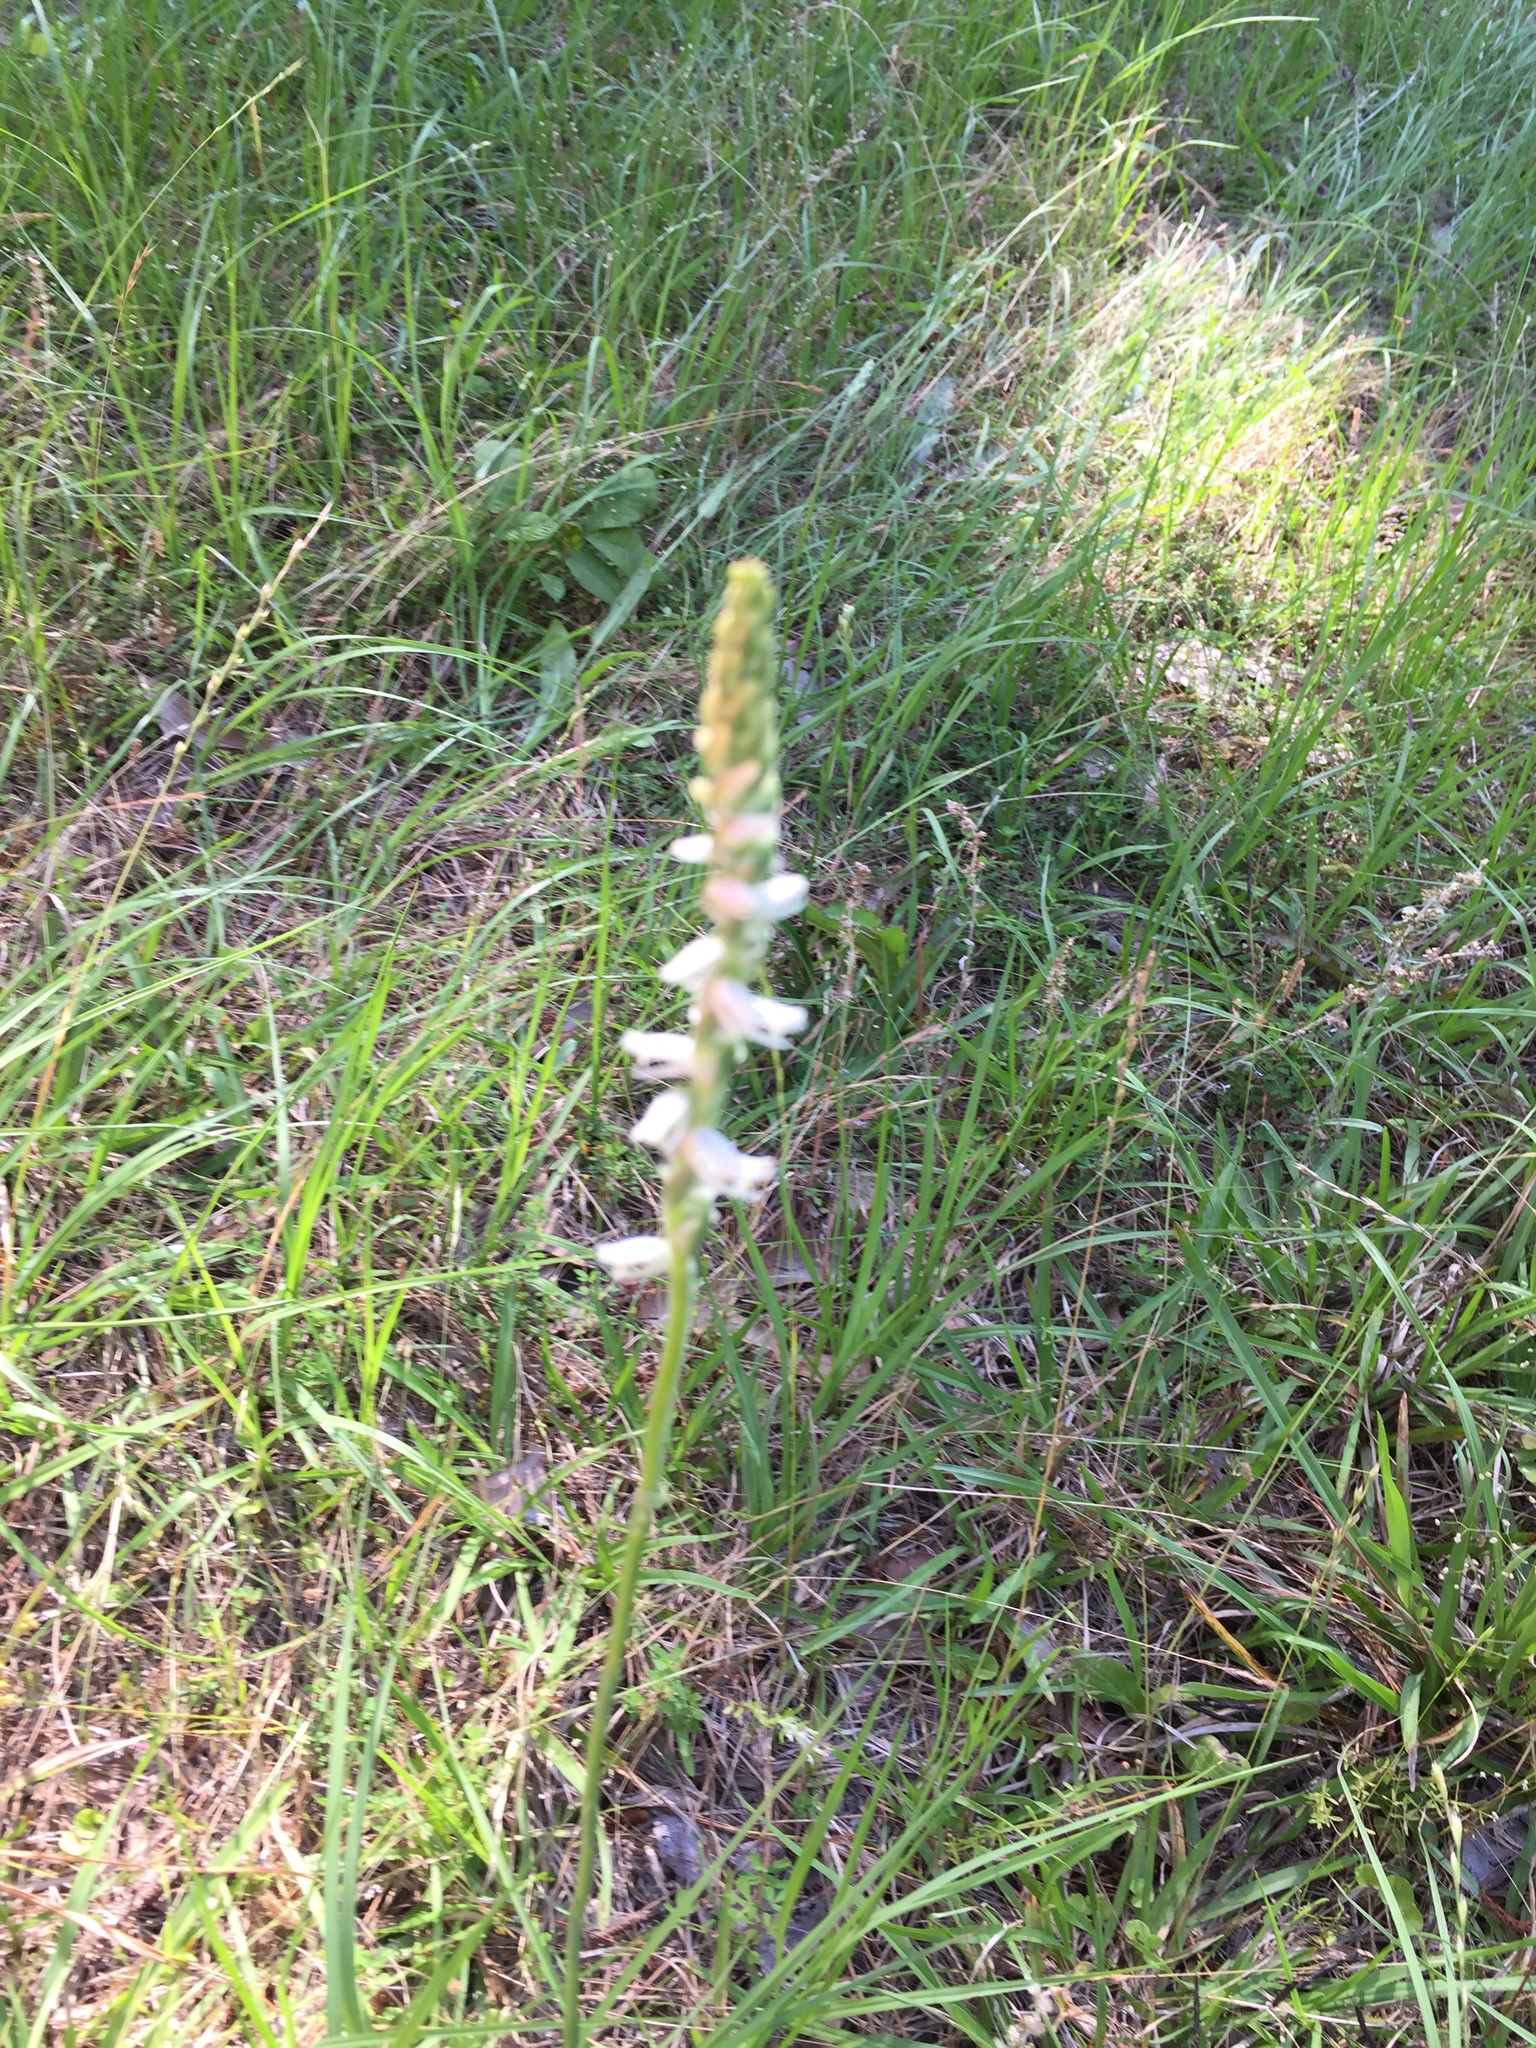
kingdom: Plantae
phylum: Tracheophyta
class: Liliopsida
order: Asparagales
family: Orchidaceae
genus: Spiranthes
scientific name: Spiranthes vernalis
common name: Spring ladies'-tresses
